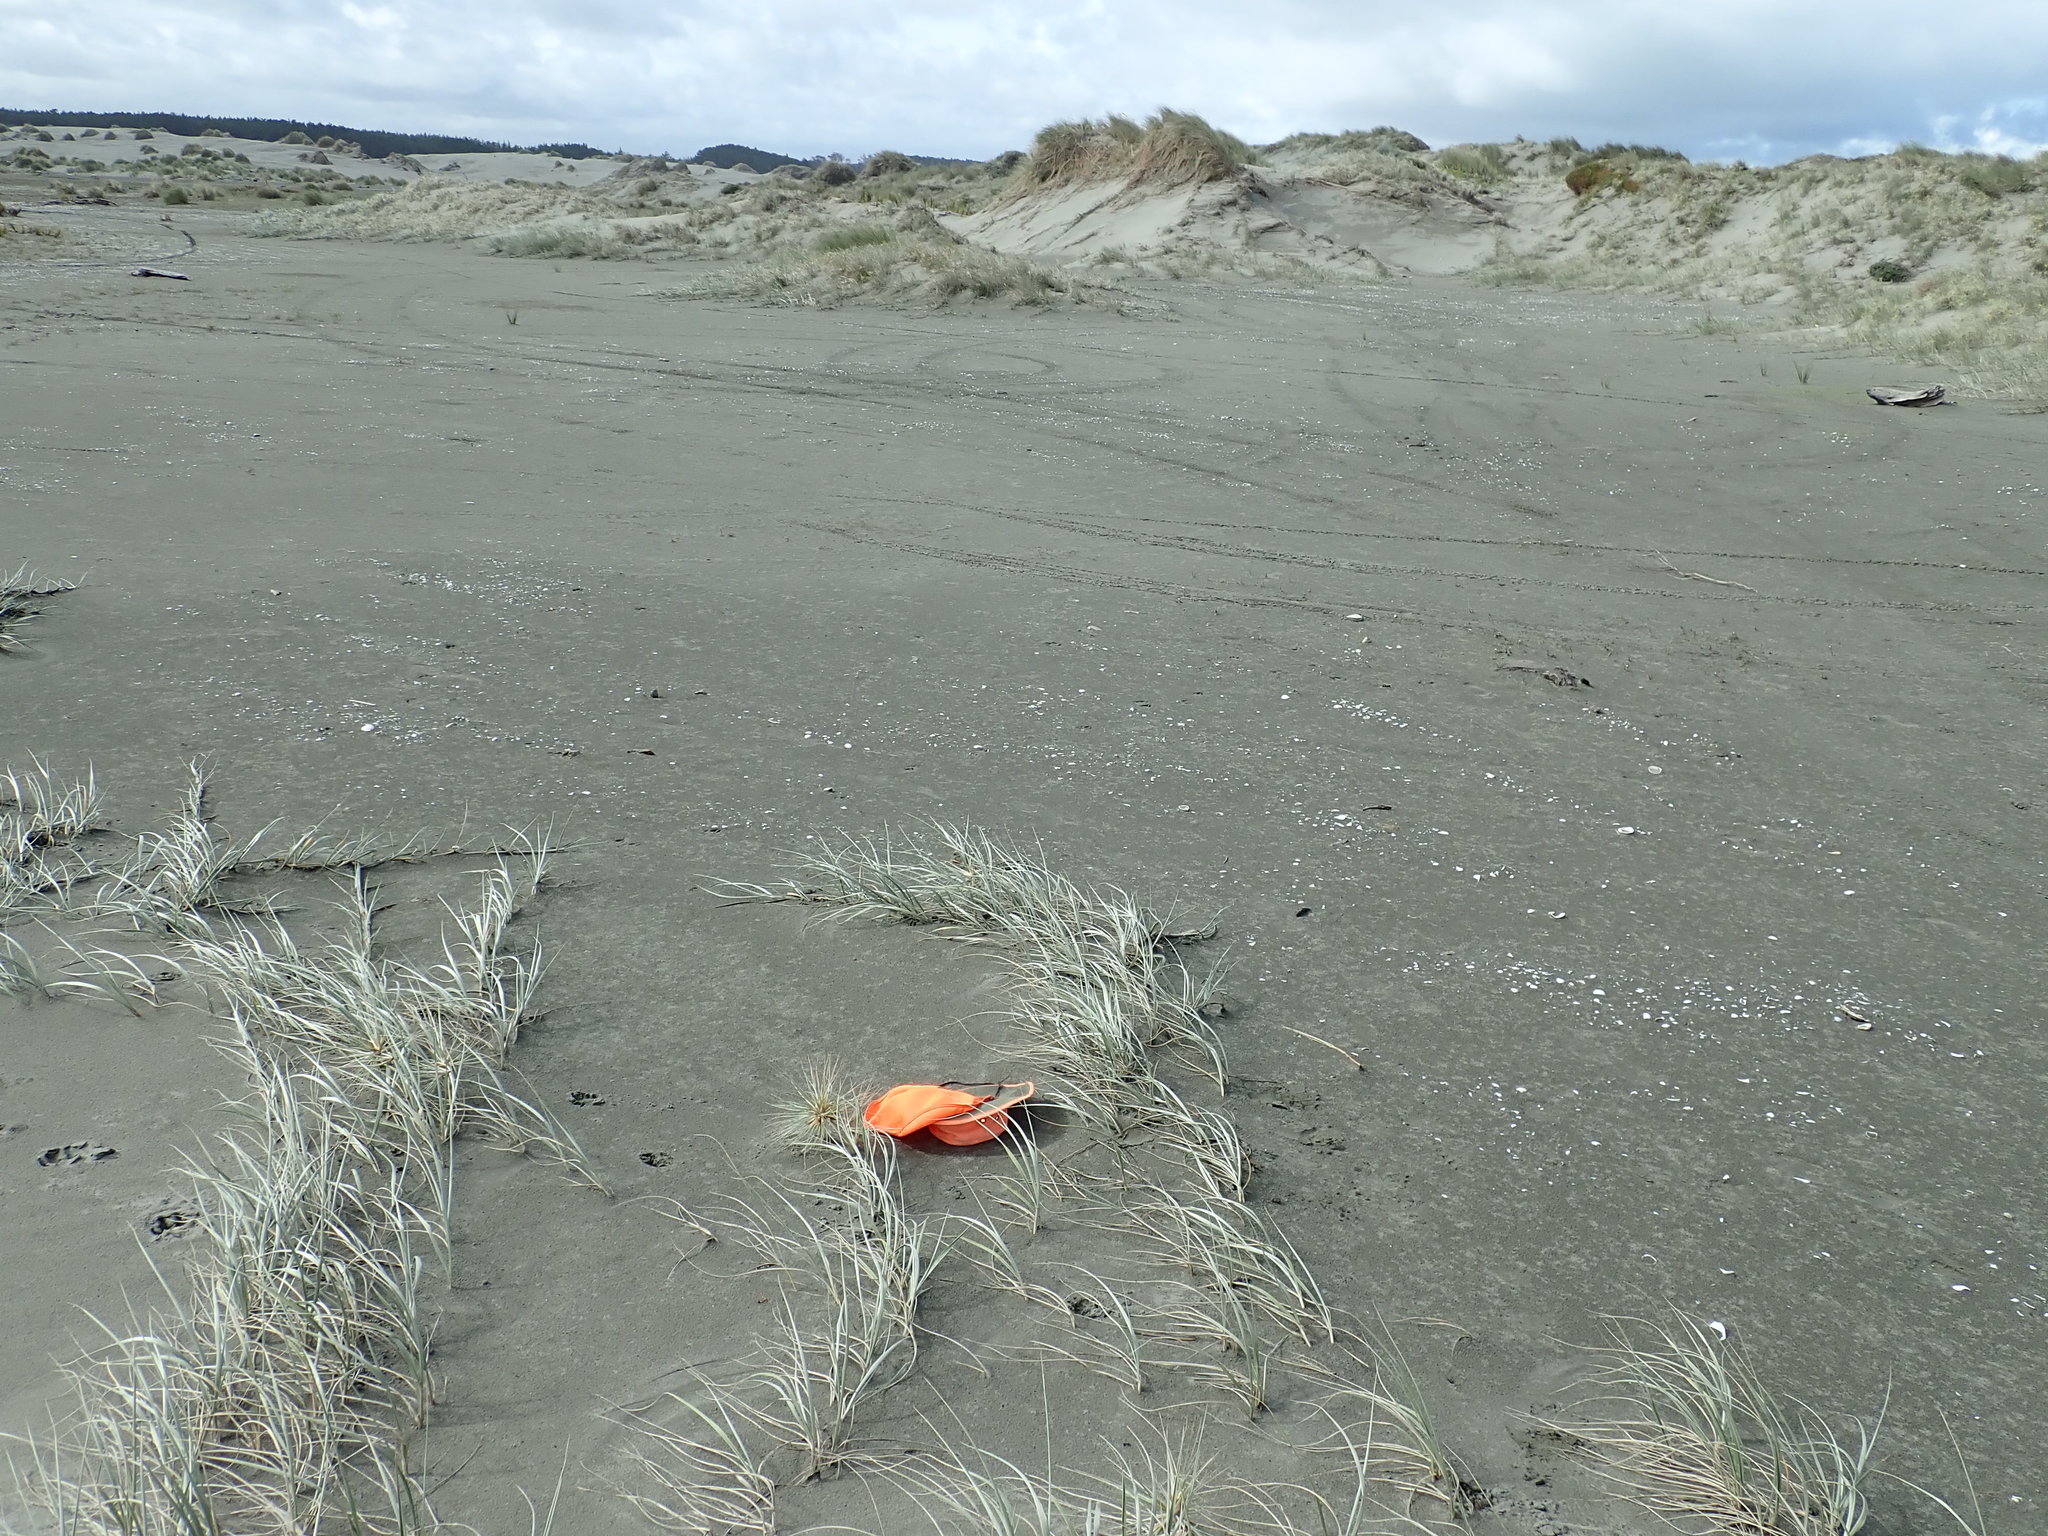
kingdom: Plantae
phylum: Tracheophyta
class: Magnoliopsida
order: Asterales
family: Goodeniaceae
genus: Goodenia
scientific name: Goodenia heenanii
